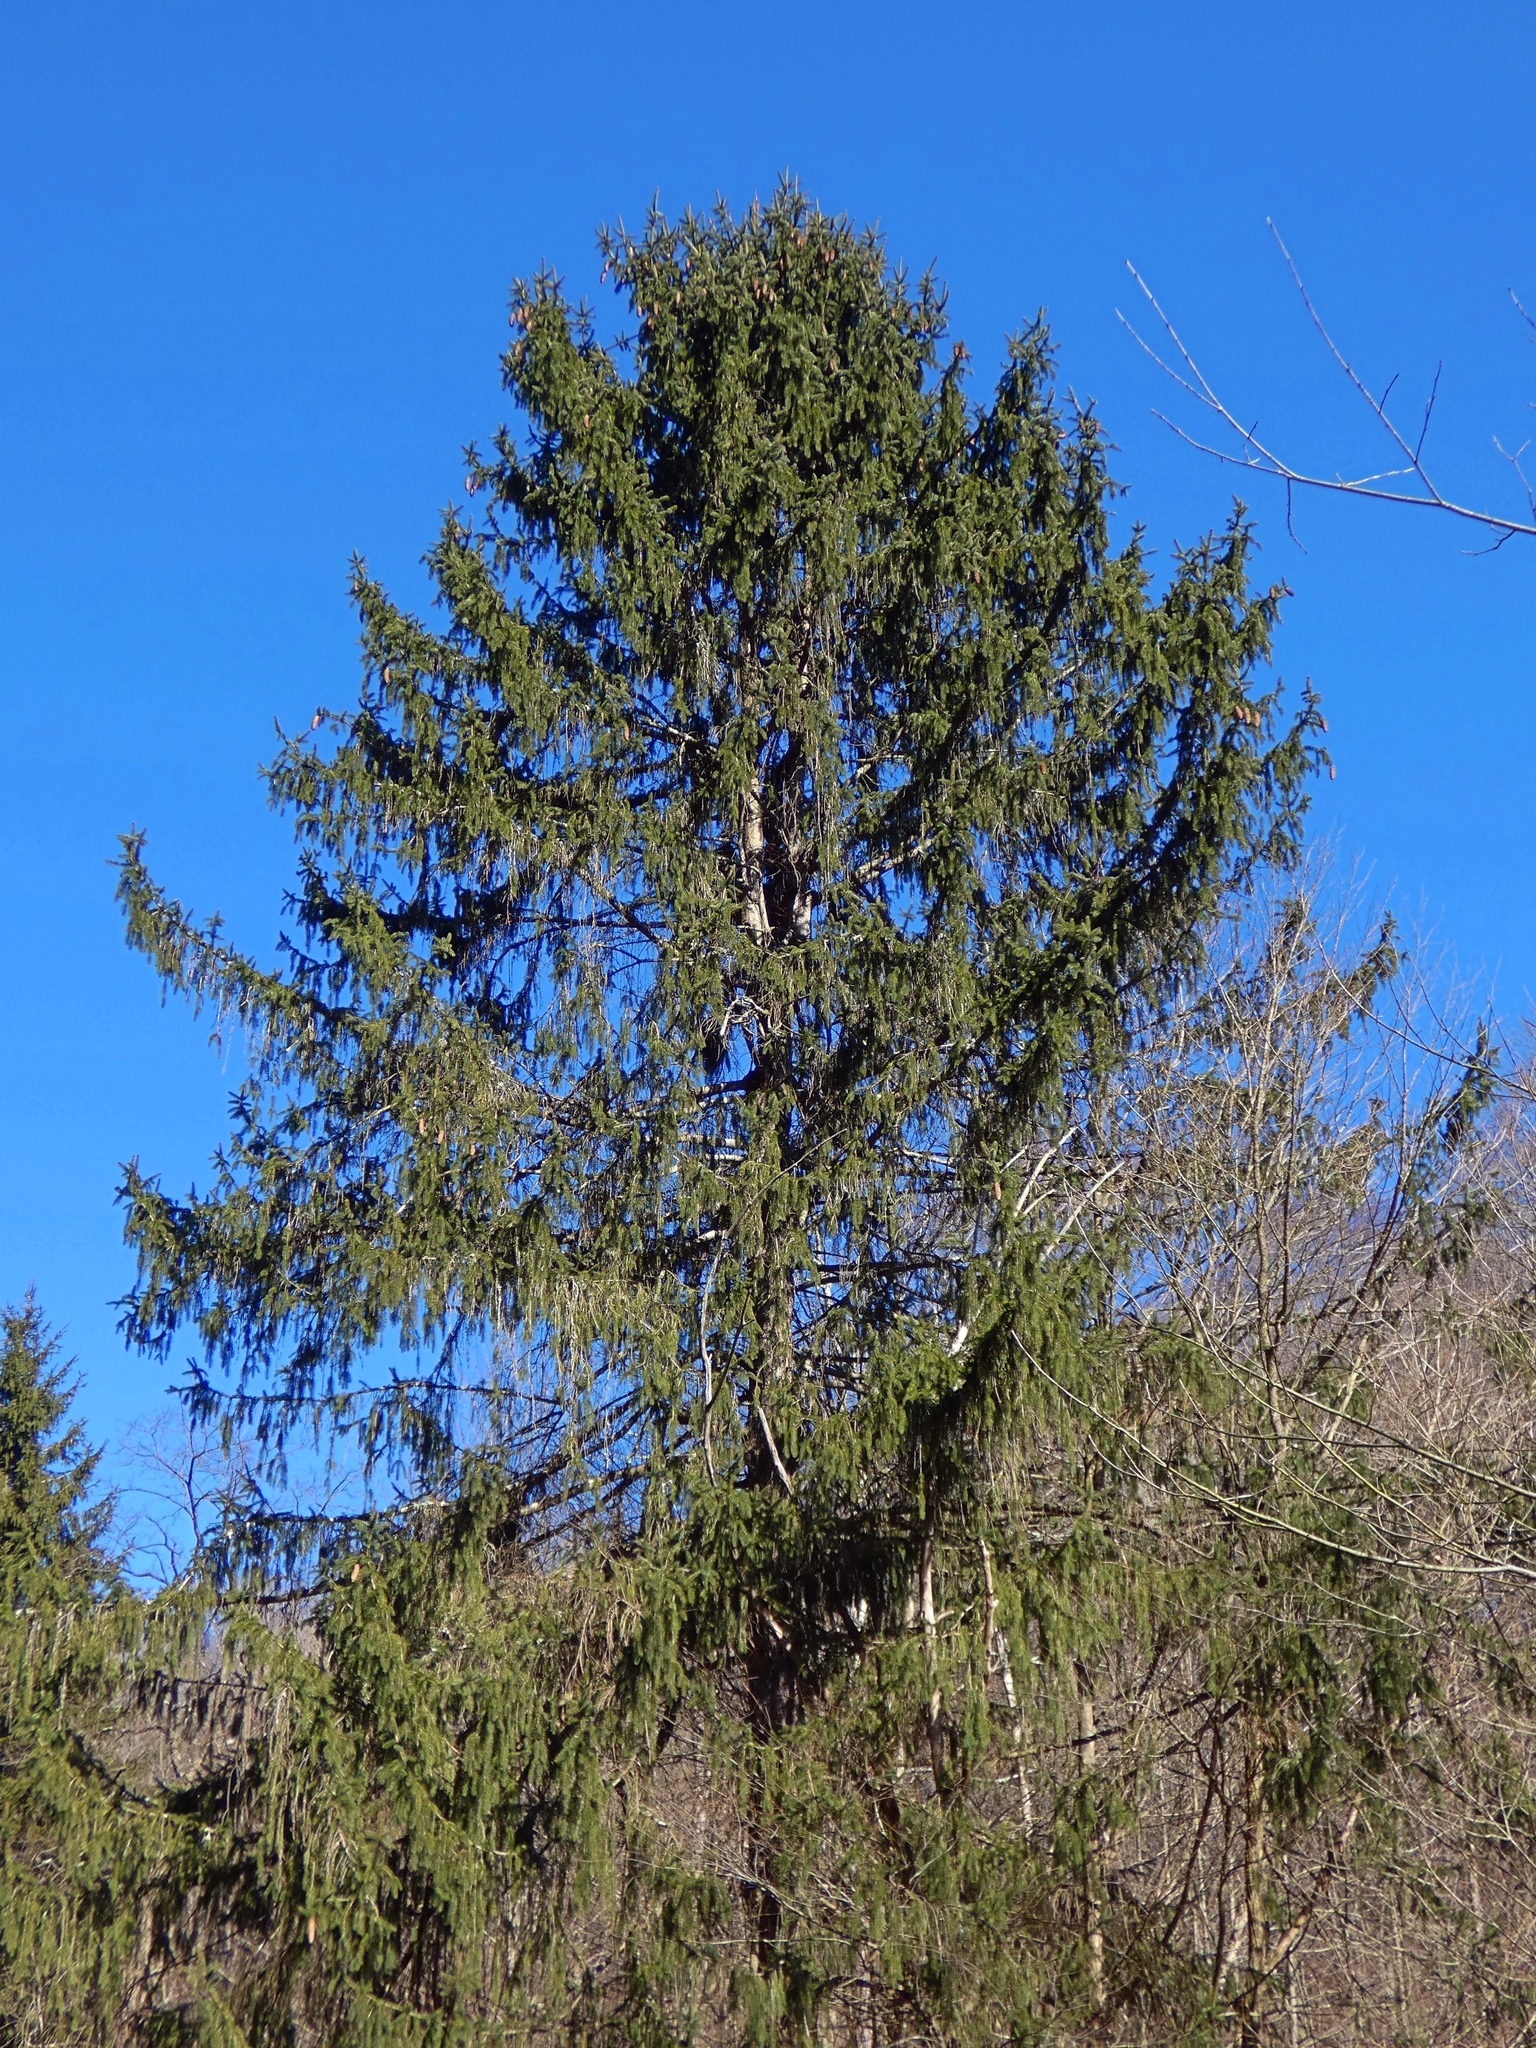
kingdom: Plantae
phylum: Tracheophyta
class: Pinopsida
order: Pinales
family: Pinaceae
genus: Picea
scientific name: Picea abies
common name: Norway spruce
